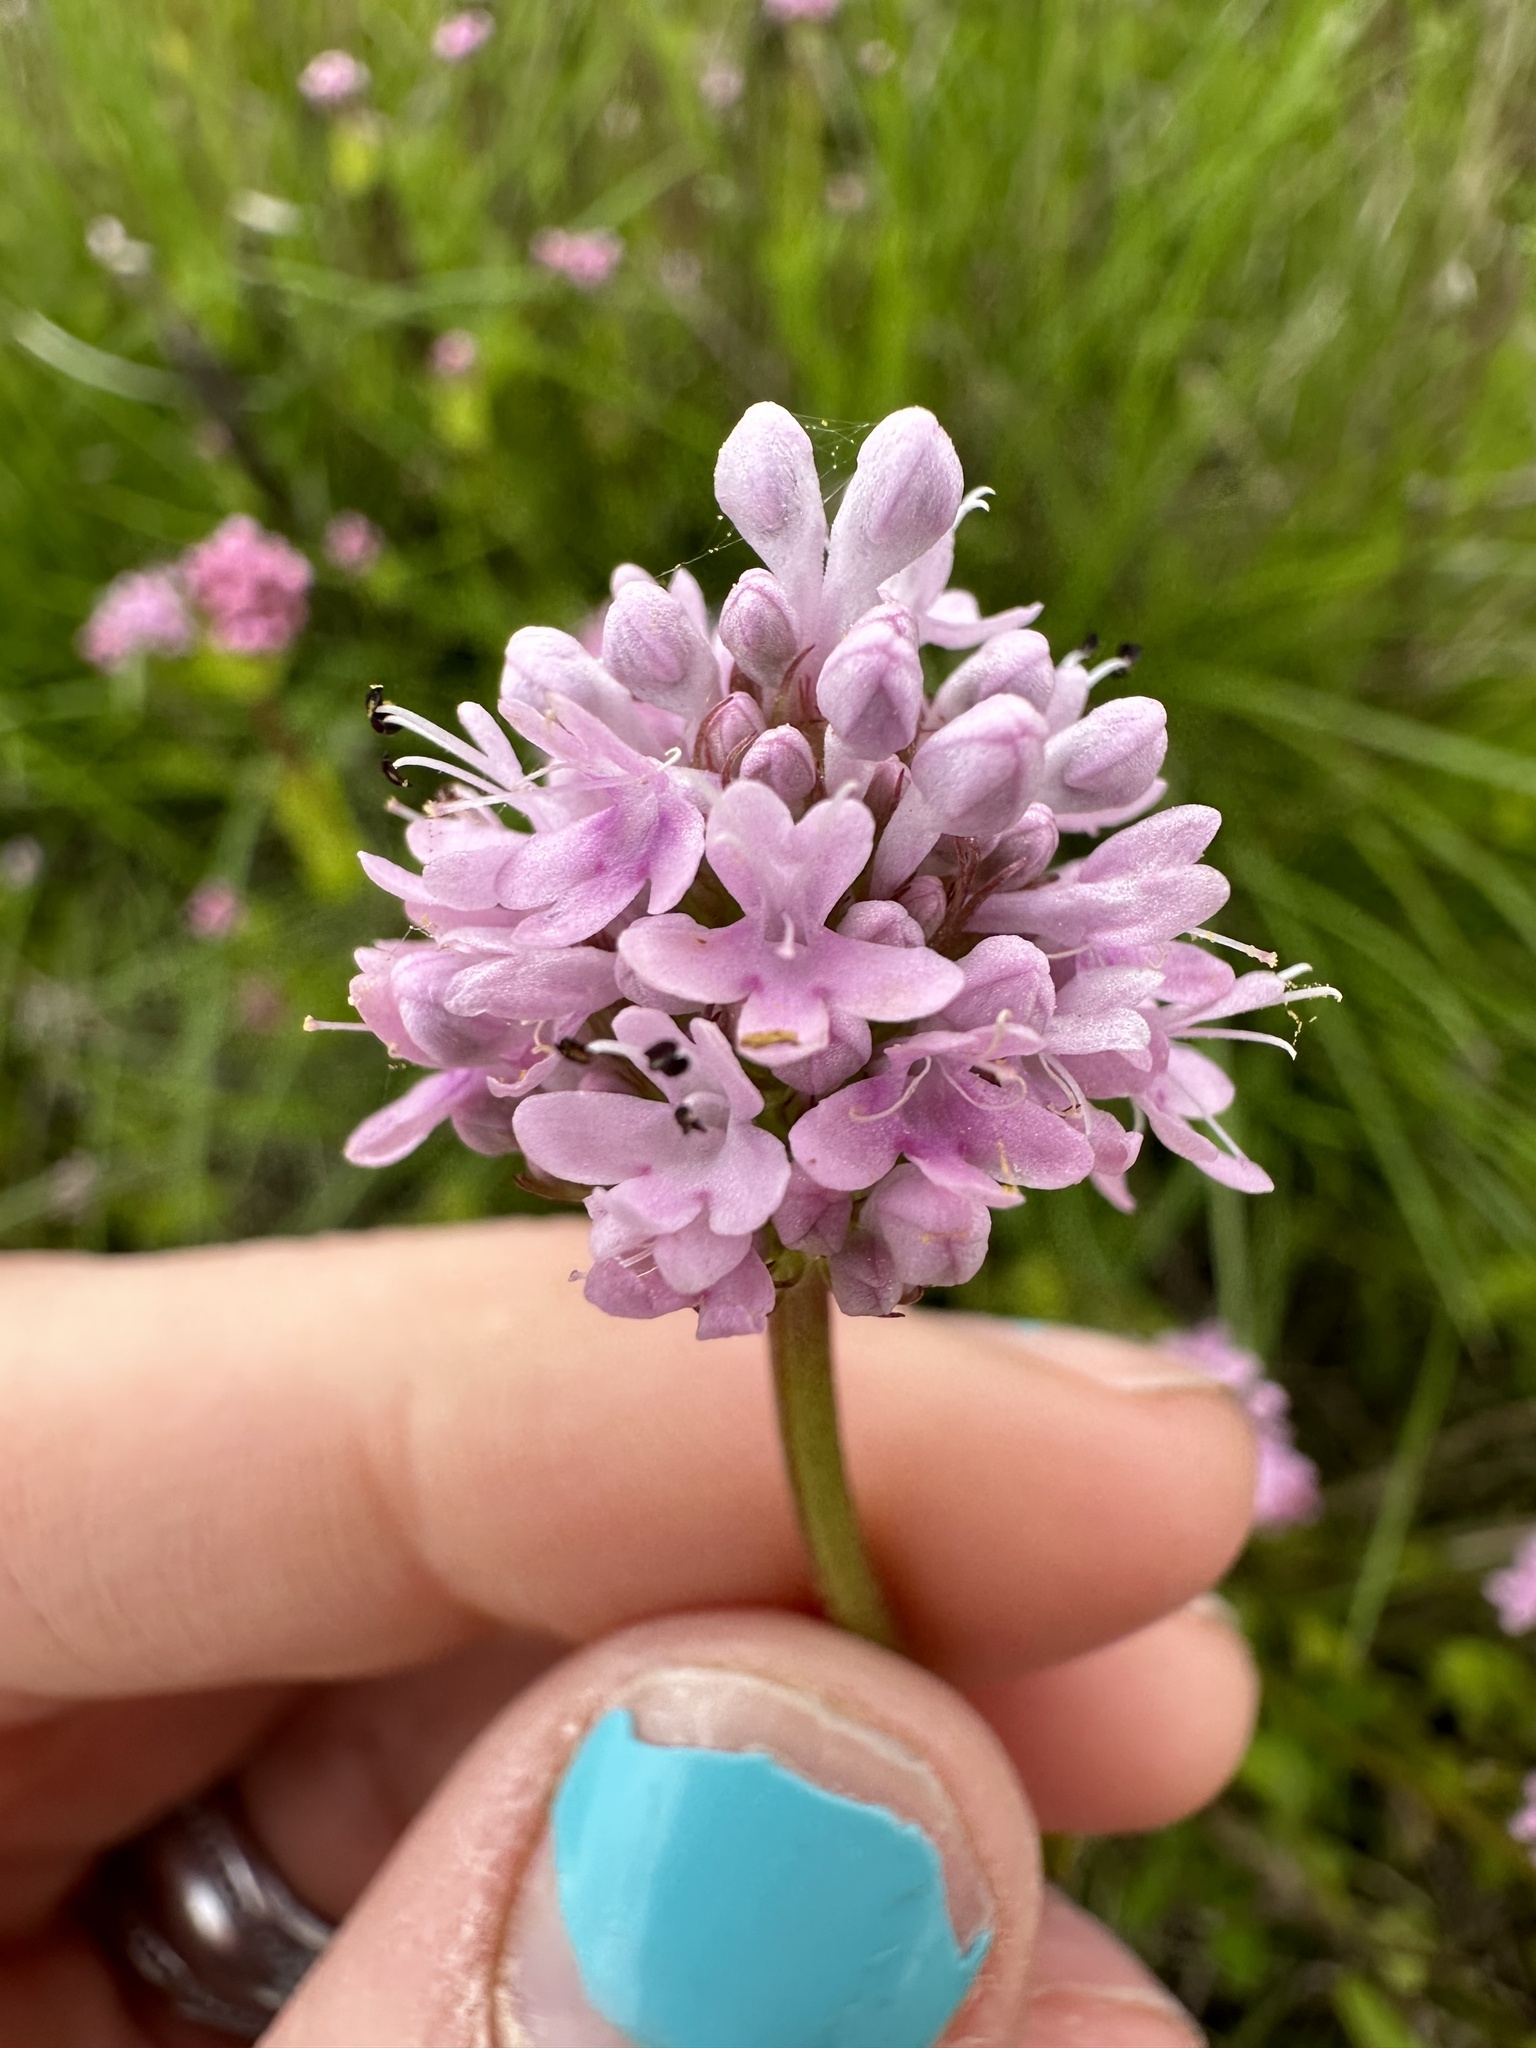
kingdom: Plantae
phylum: Tracheophyta
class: Magnoliopsida
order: Dipsacales
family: Caprifoliaceae
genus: Plectritis
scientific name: Plectritis congesta
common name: Pink plectritis
